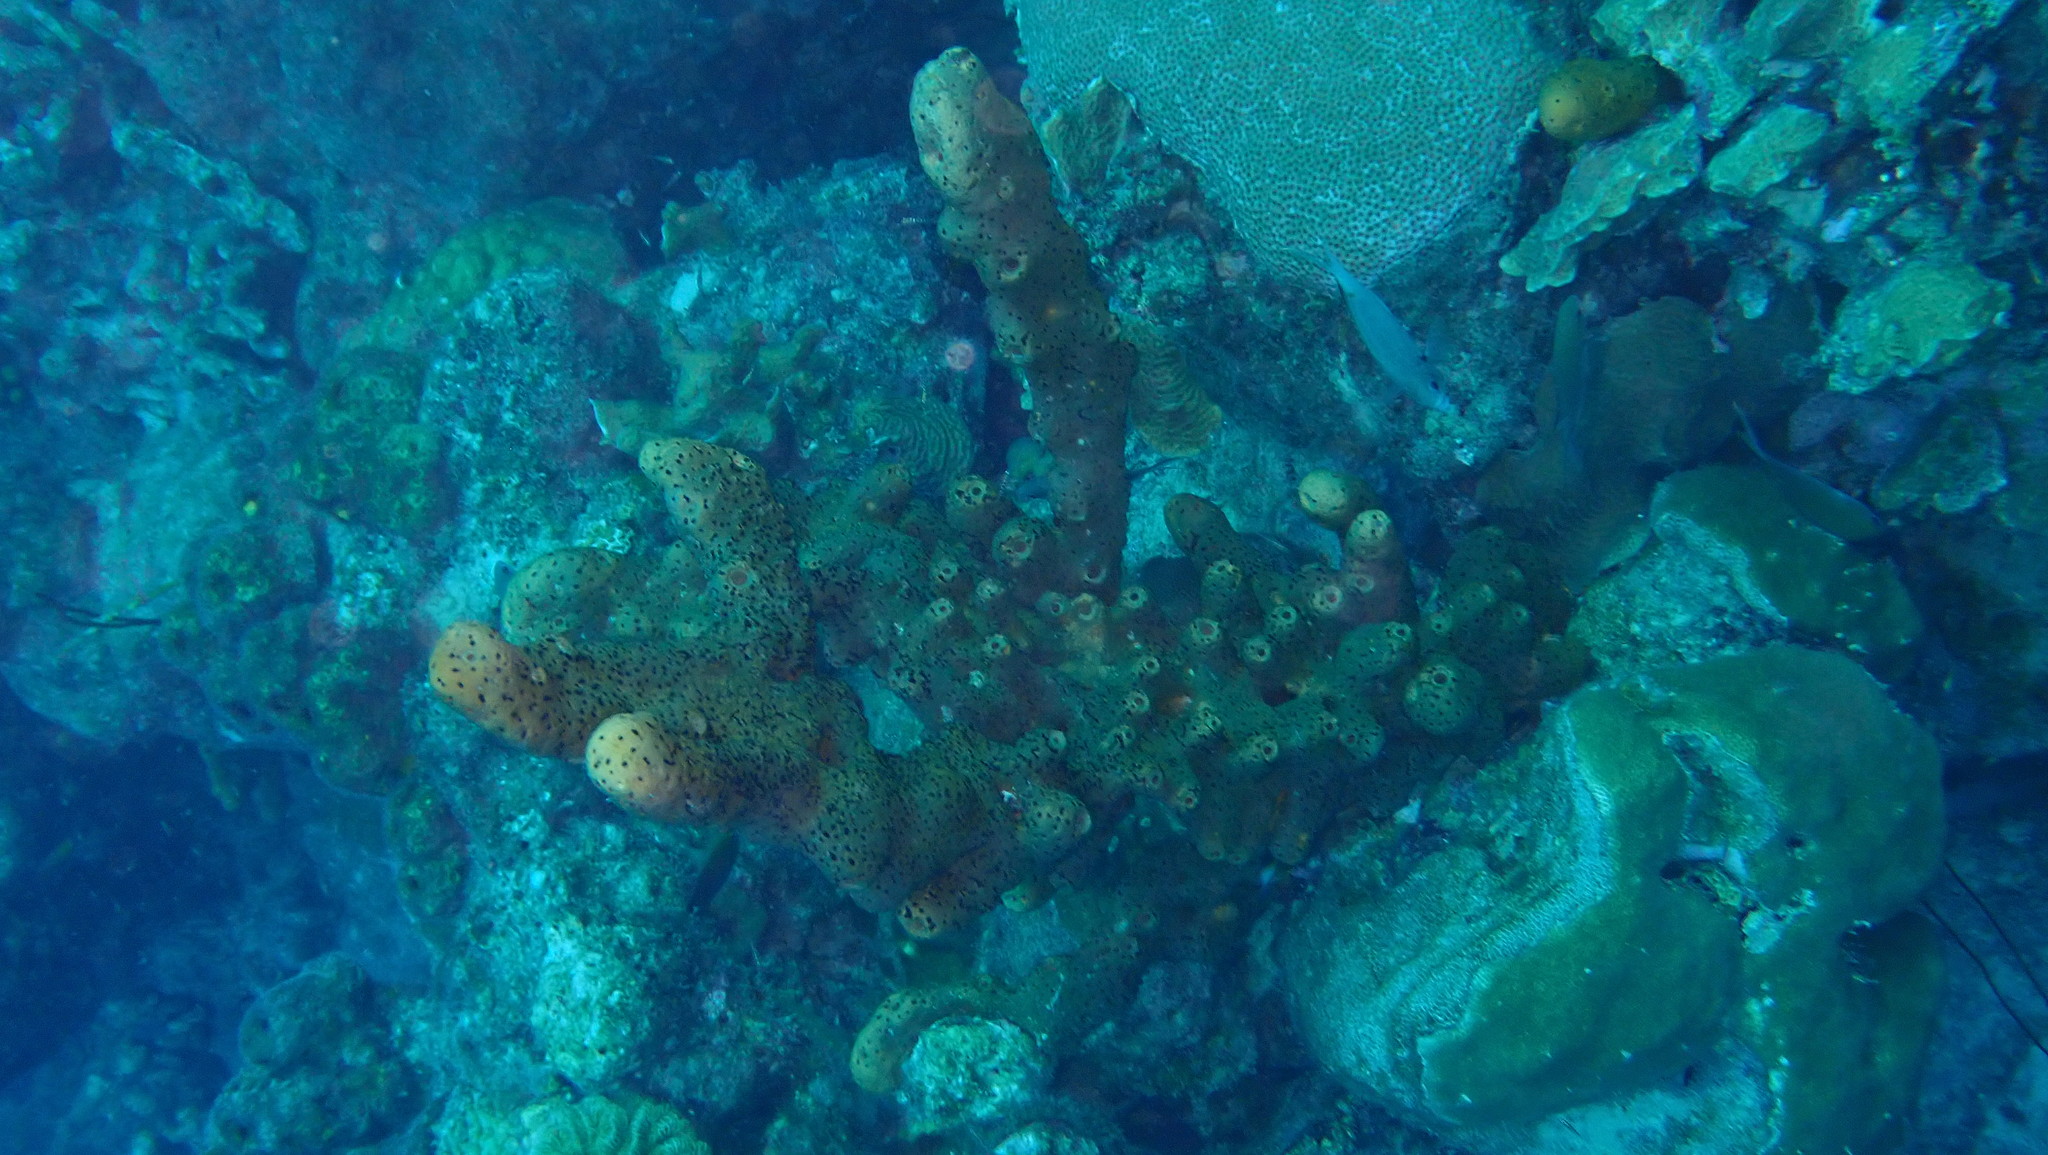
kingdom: Animalia
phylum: Cnidaria
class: Anthozoa
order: Zoantharia
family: Parazoanthidae
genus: Bergia
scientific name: Bergia puertoricense
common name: Maroon sponge zoanthid
